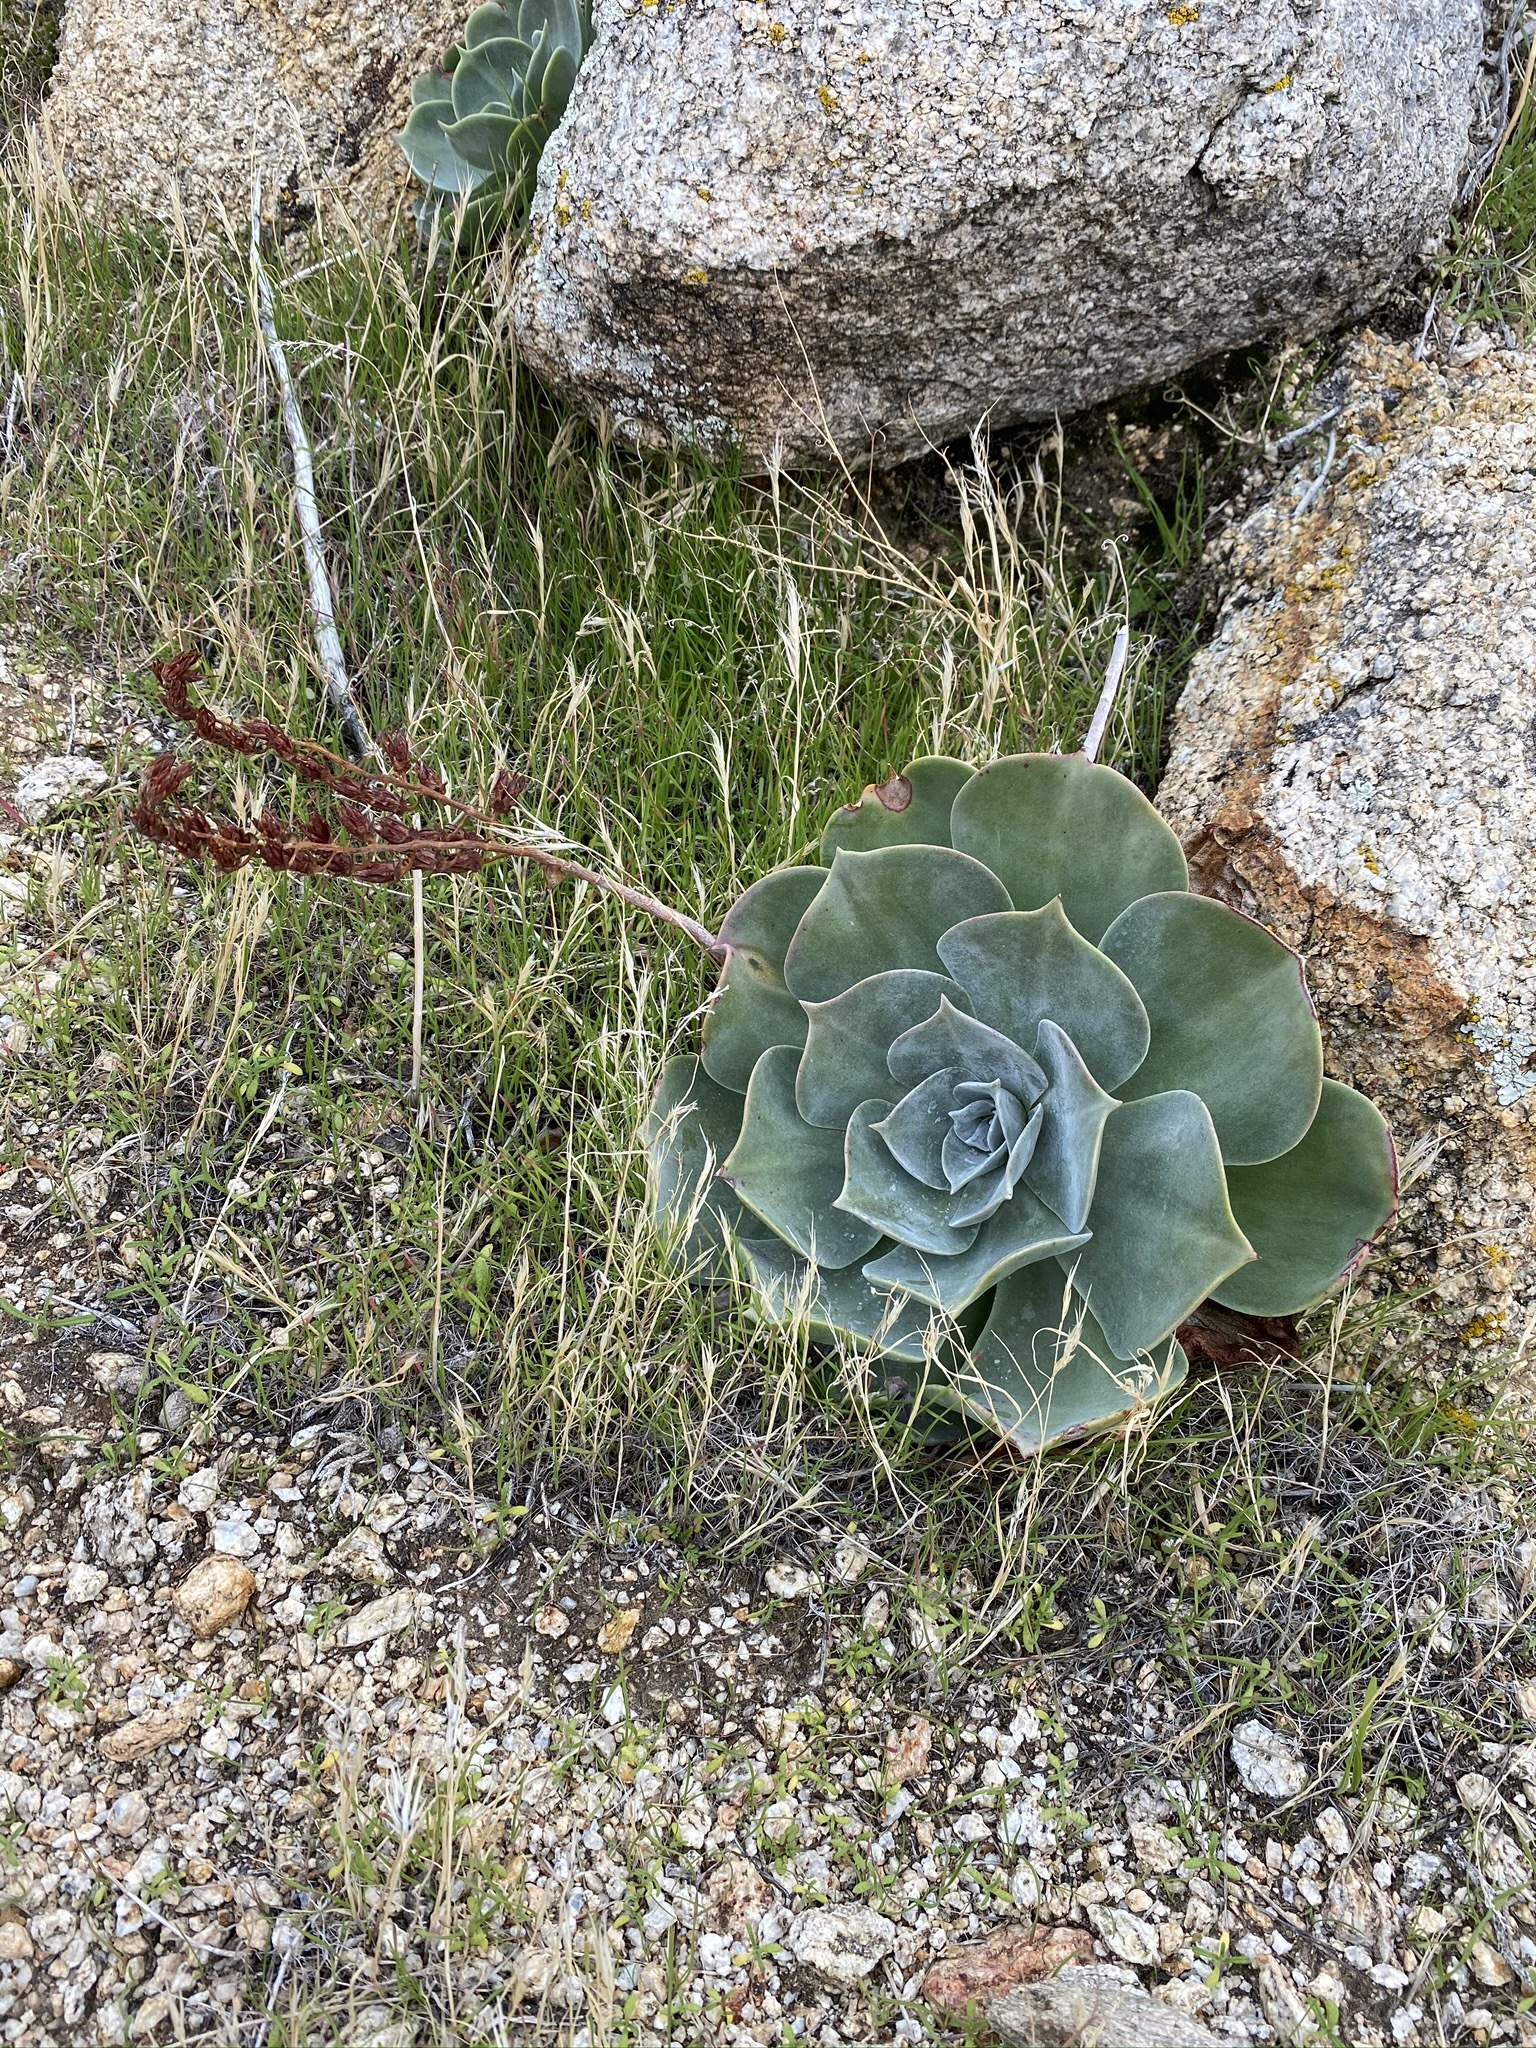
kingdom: Plantae
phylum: Tracheophyta
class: Magnoliopsida
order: Saxifragales
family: Crassulaceae
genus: Dudleya
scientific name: Dudleya arizonica
